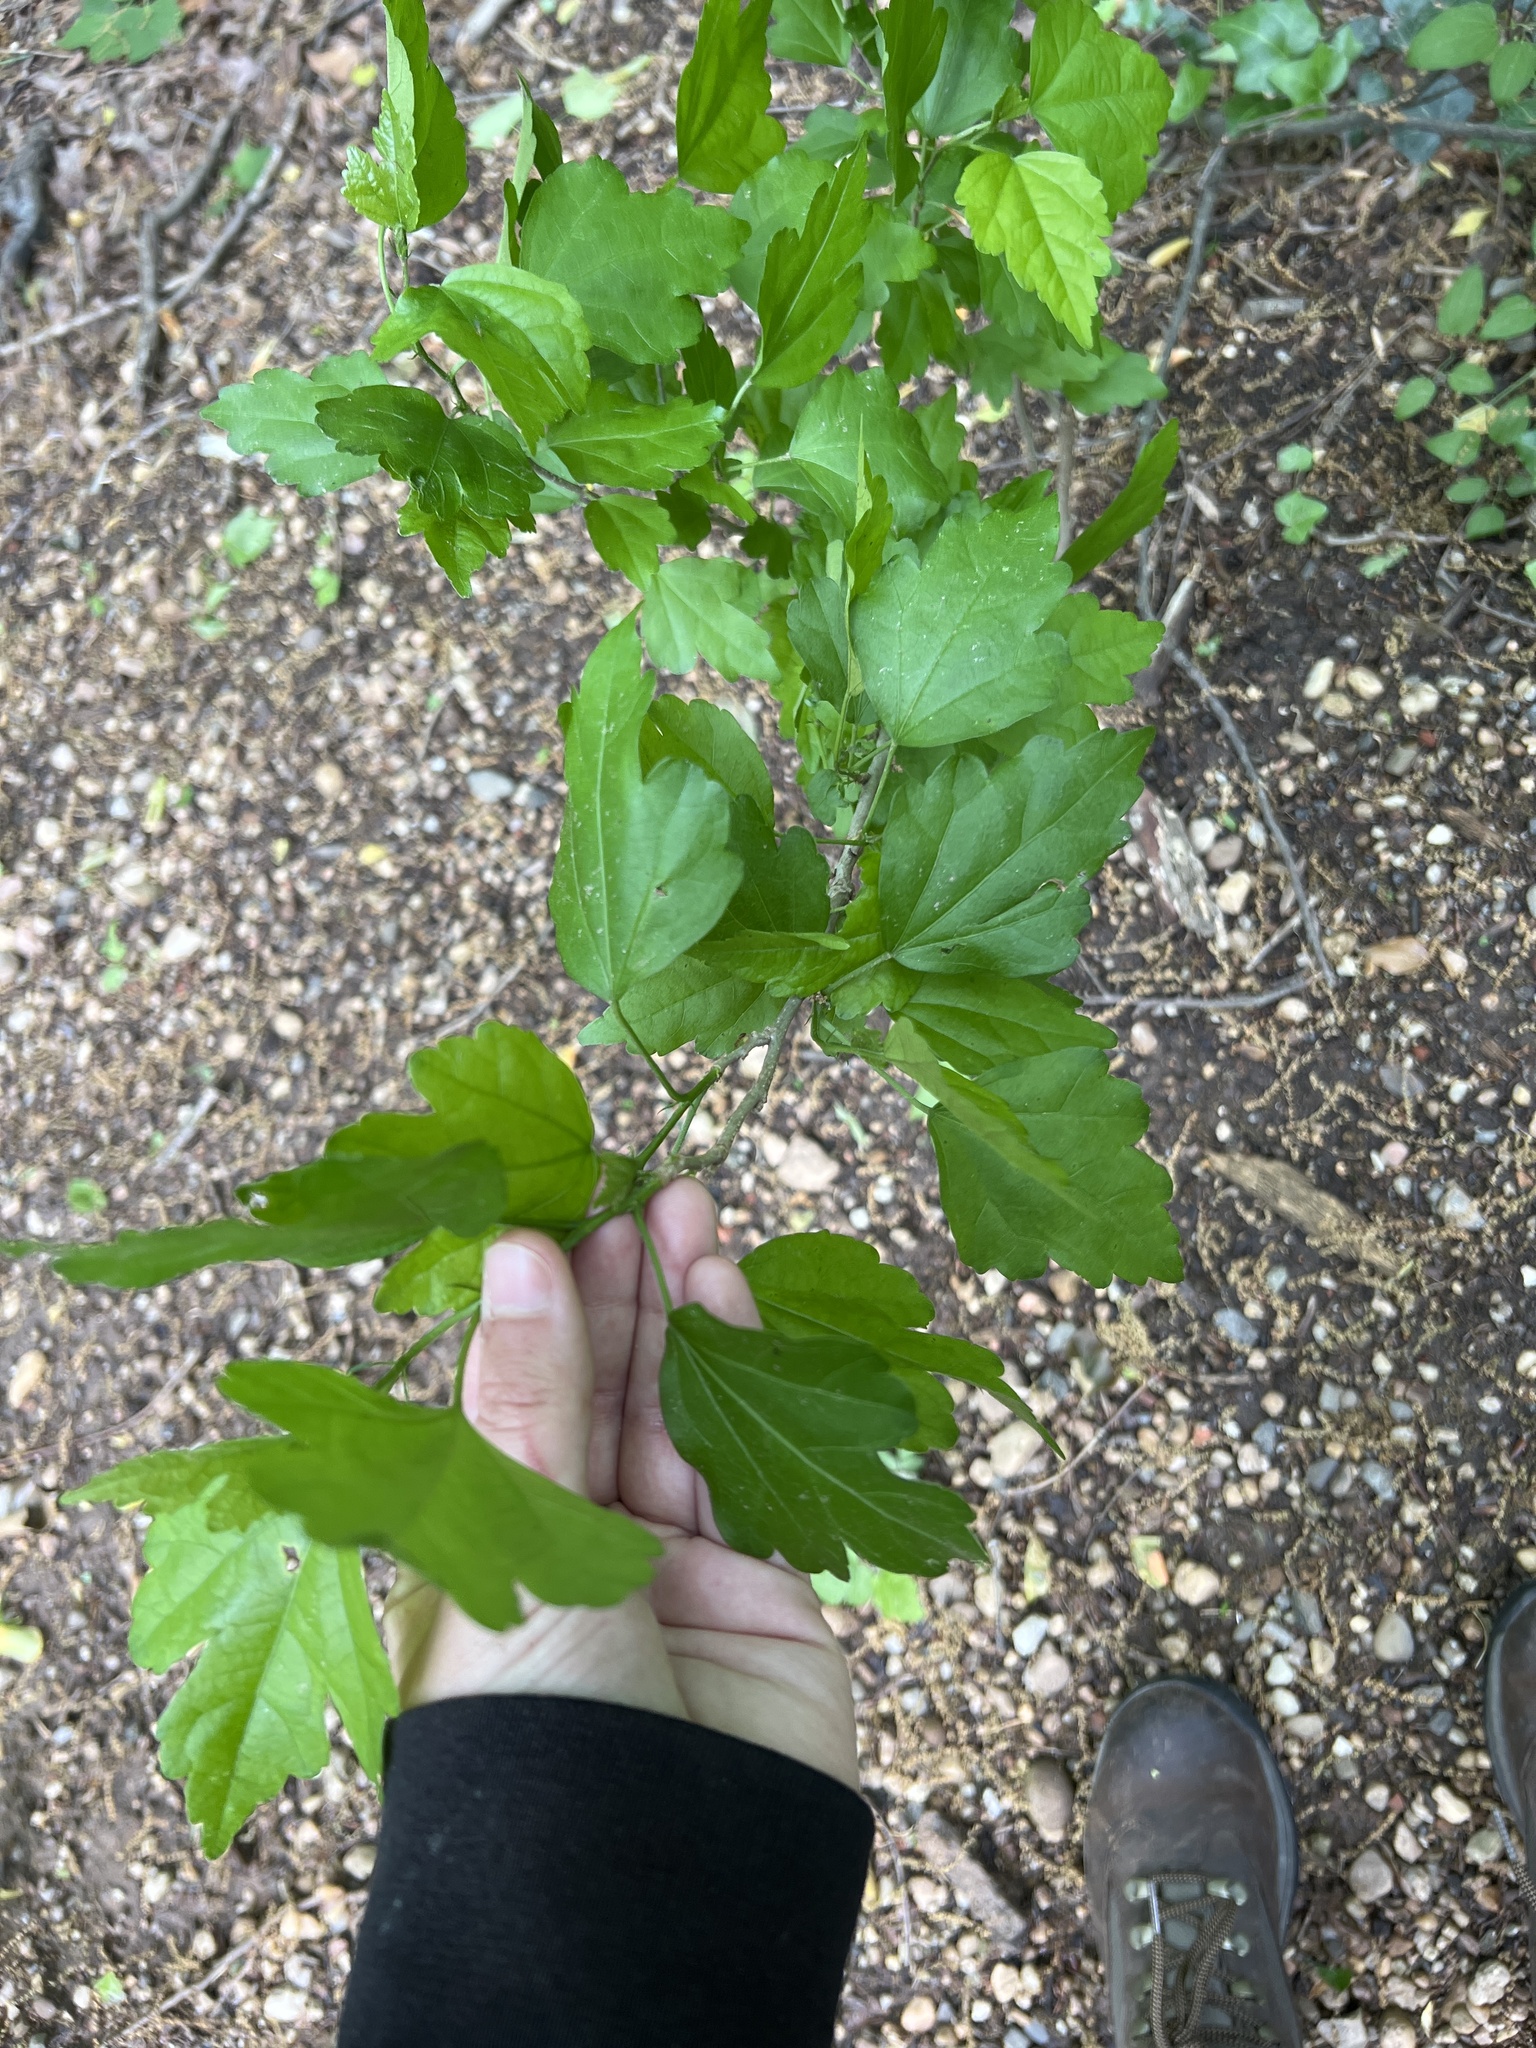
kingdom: Plantae
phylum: Tracheophyta
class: Magnoliopsida
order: Malvales
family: Malvaceae
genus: Hibiscus
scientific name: Hibiscus syriacus
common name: Syrian ketmia
